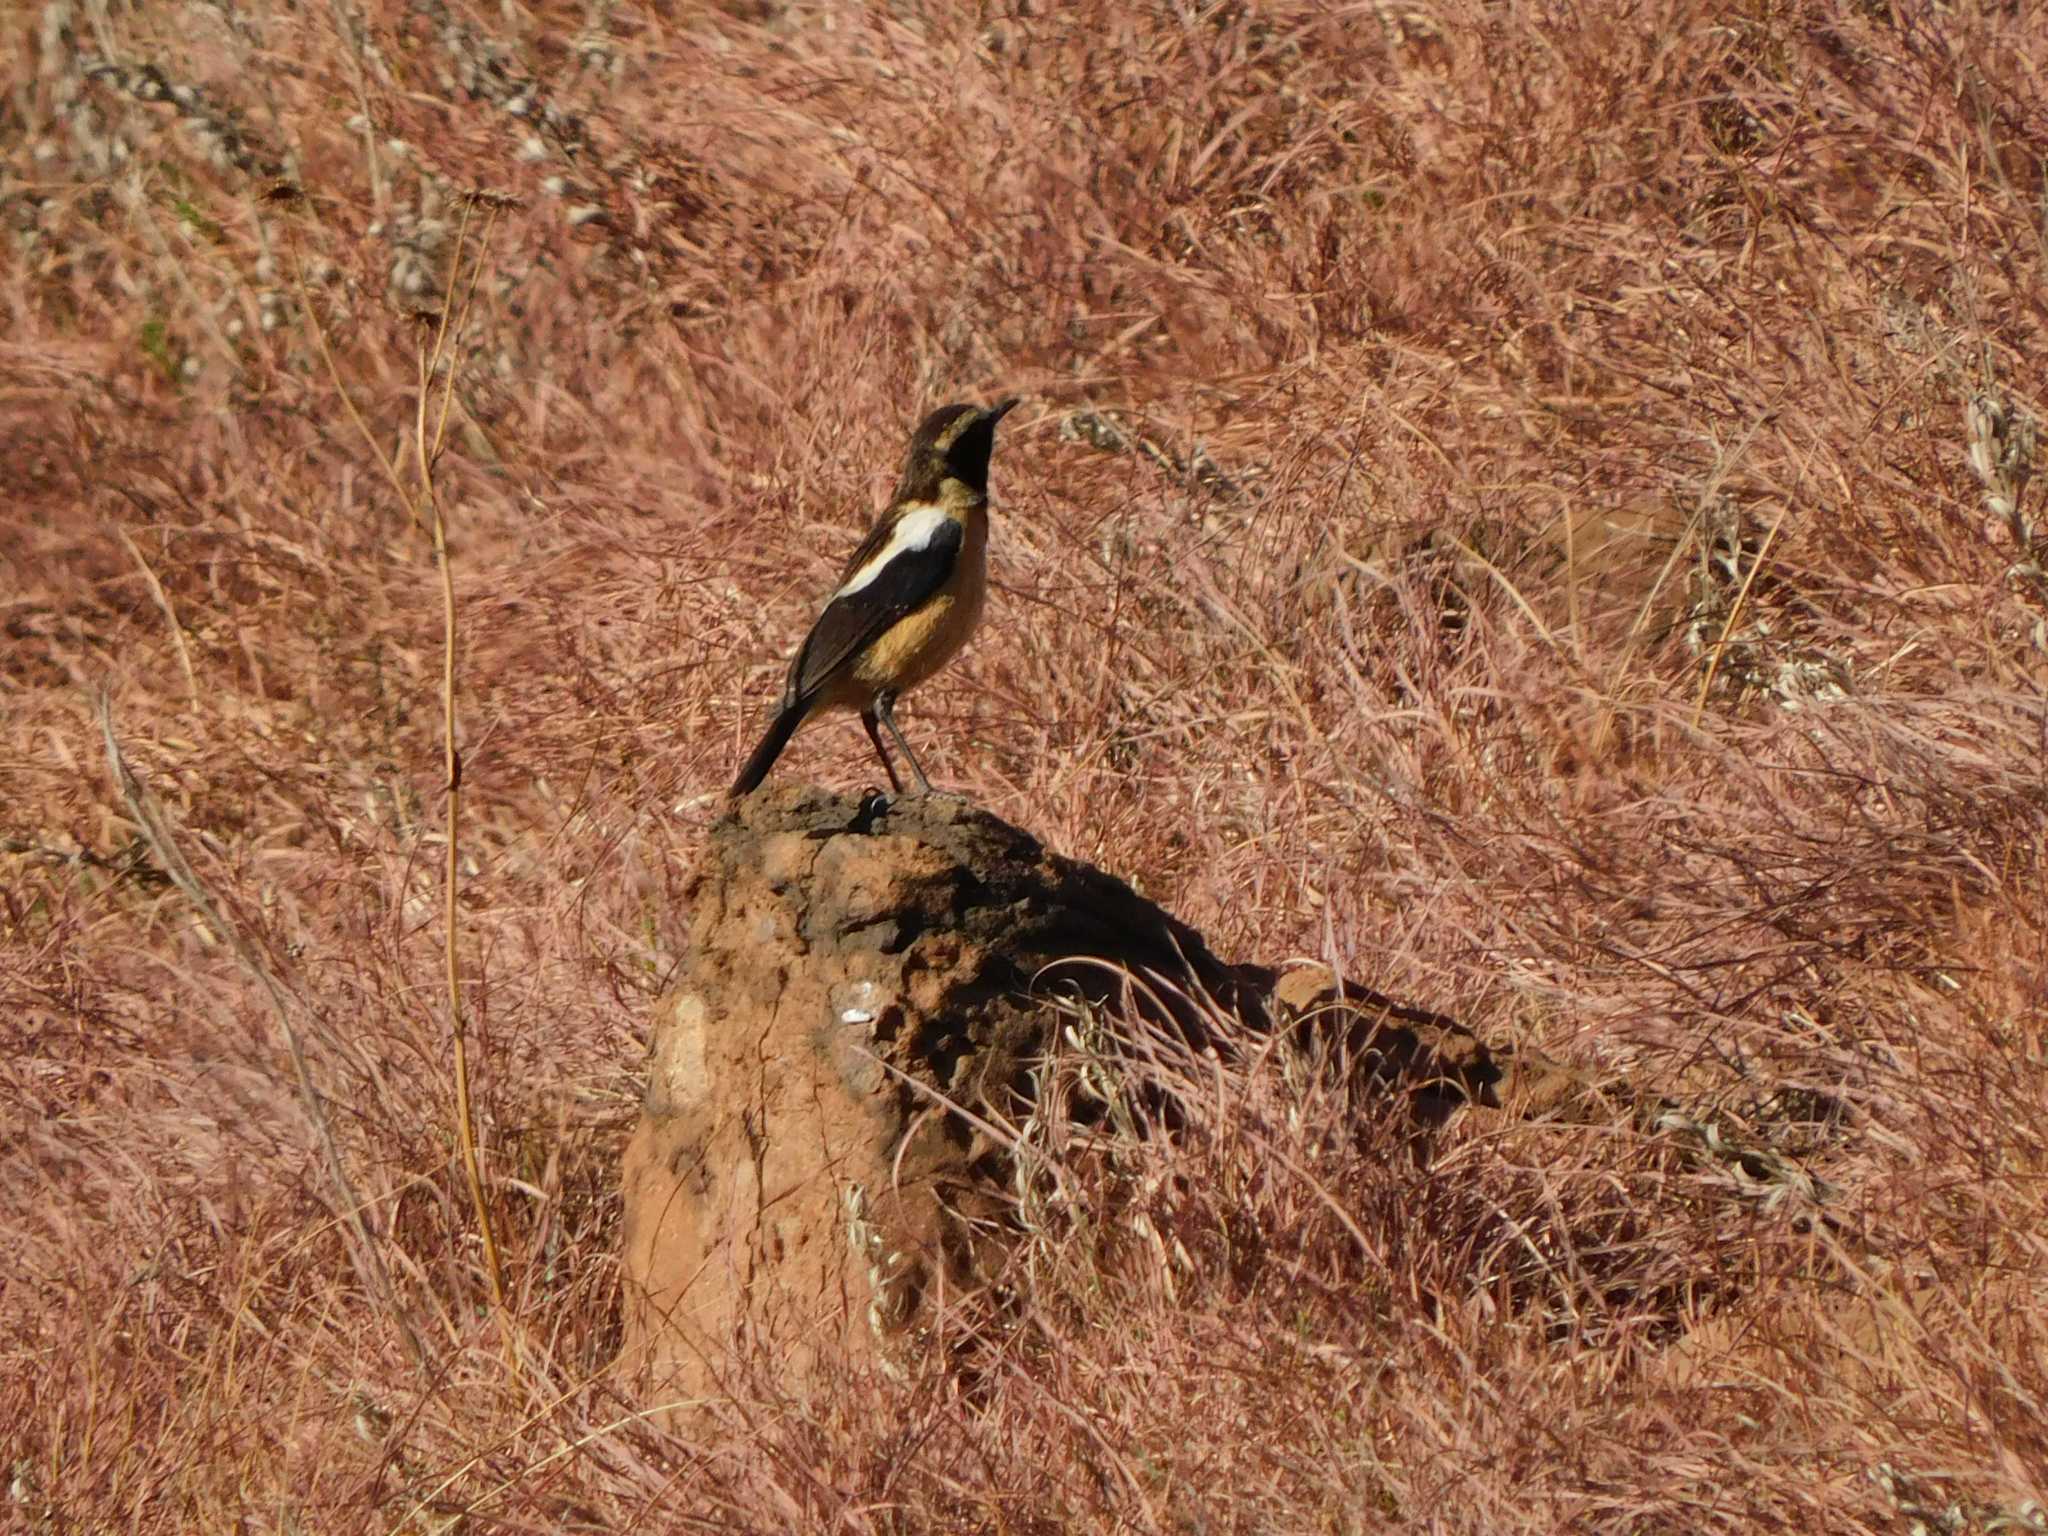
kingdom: Animalia
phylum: Chordata
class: Aves
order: Passeriformes
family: Muscicapidae
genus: Campicoloides
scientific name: Campicoloides bifasciatus
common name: Buff-streaked chat
